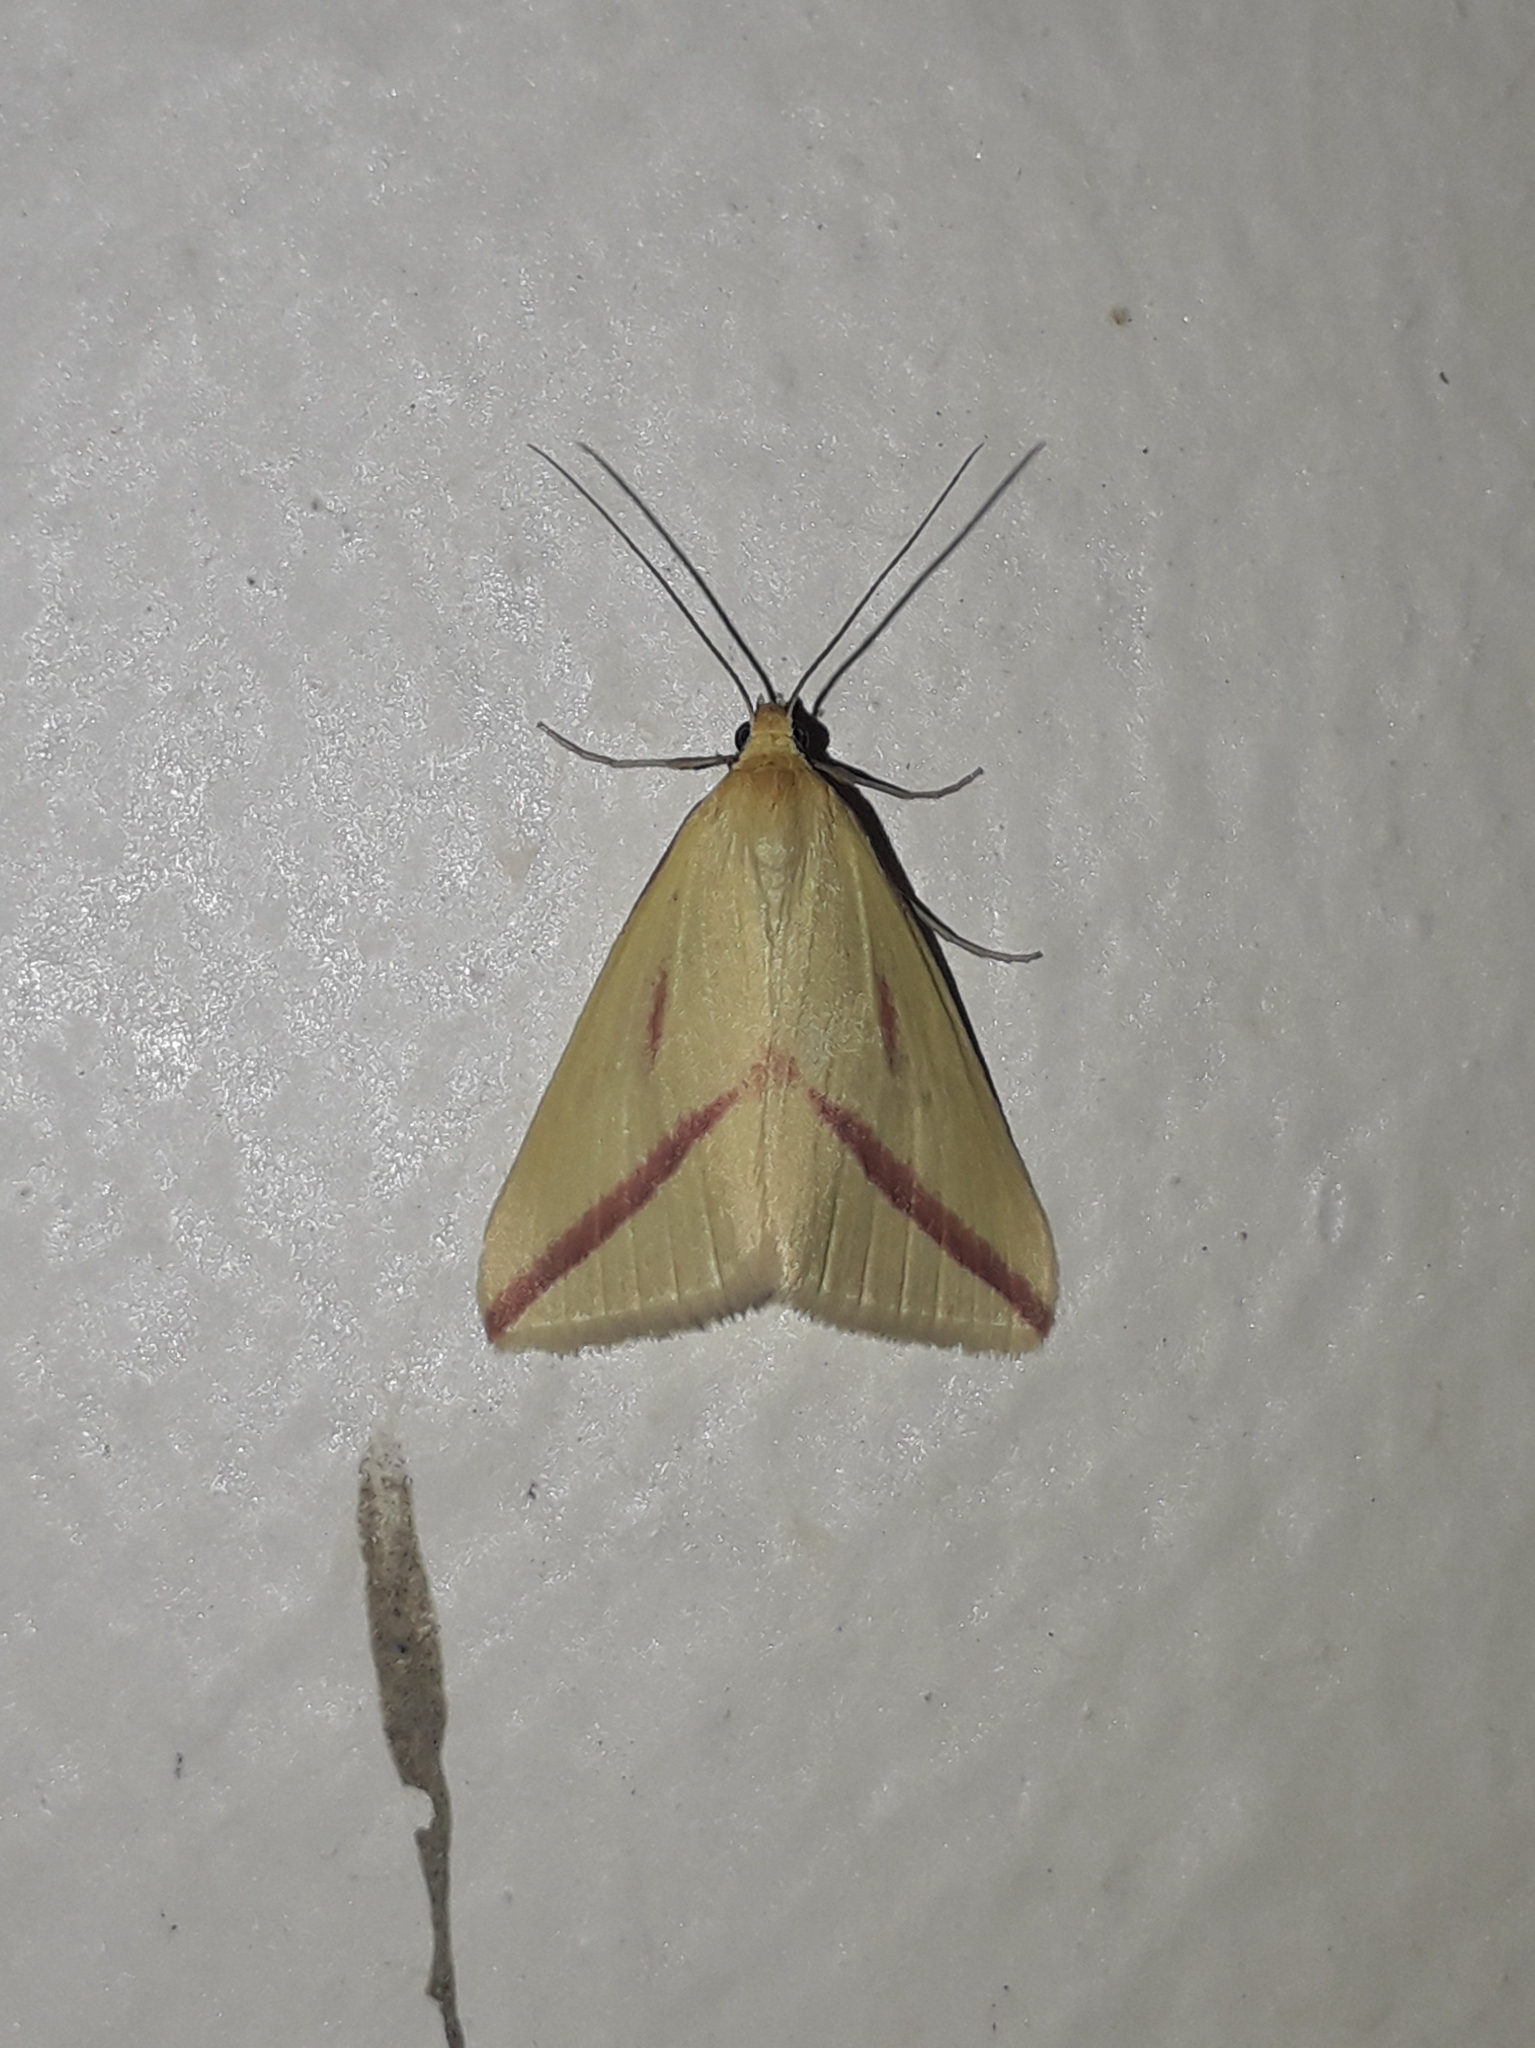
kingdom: Animalia
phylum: Arthropoda
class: Insecta
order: Lepidoptera
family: Geometridae
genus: Rhodometra
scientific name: Rhodometra sacraria
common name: Vestal
